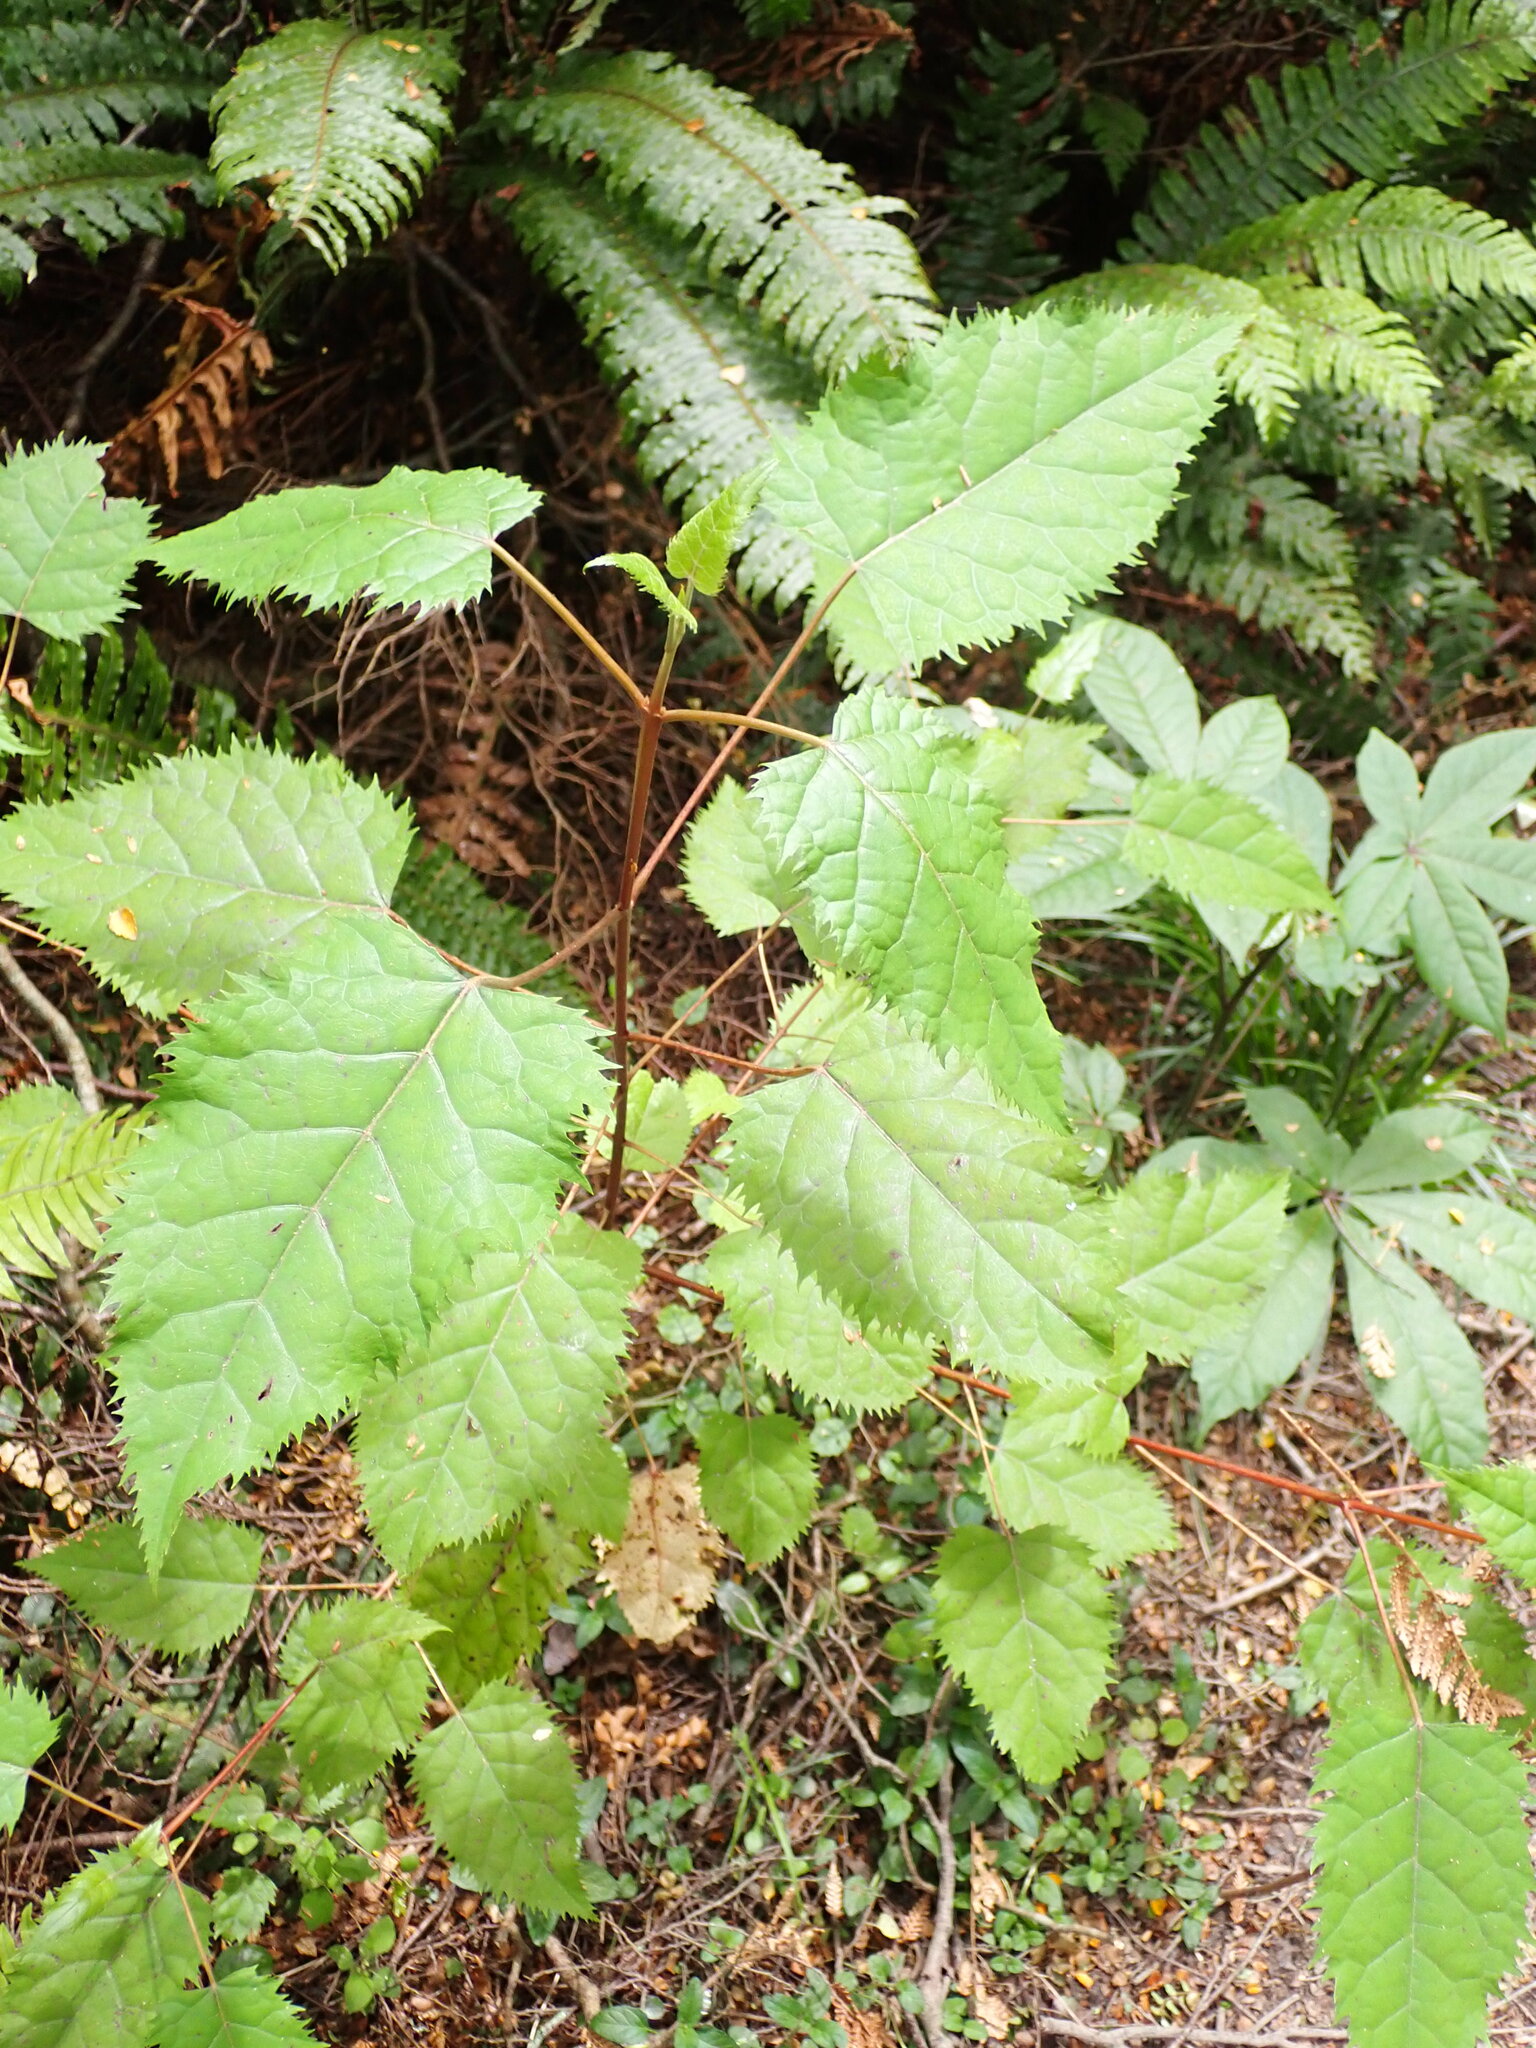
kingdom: Plantae
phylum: Tracheophyta
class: Magnoliopsida
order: Oxalidales
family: Elaeocarpaceae
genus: Aristotelia
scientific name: Aristotelia serrata
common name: New zealand wineberry
